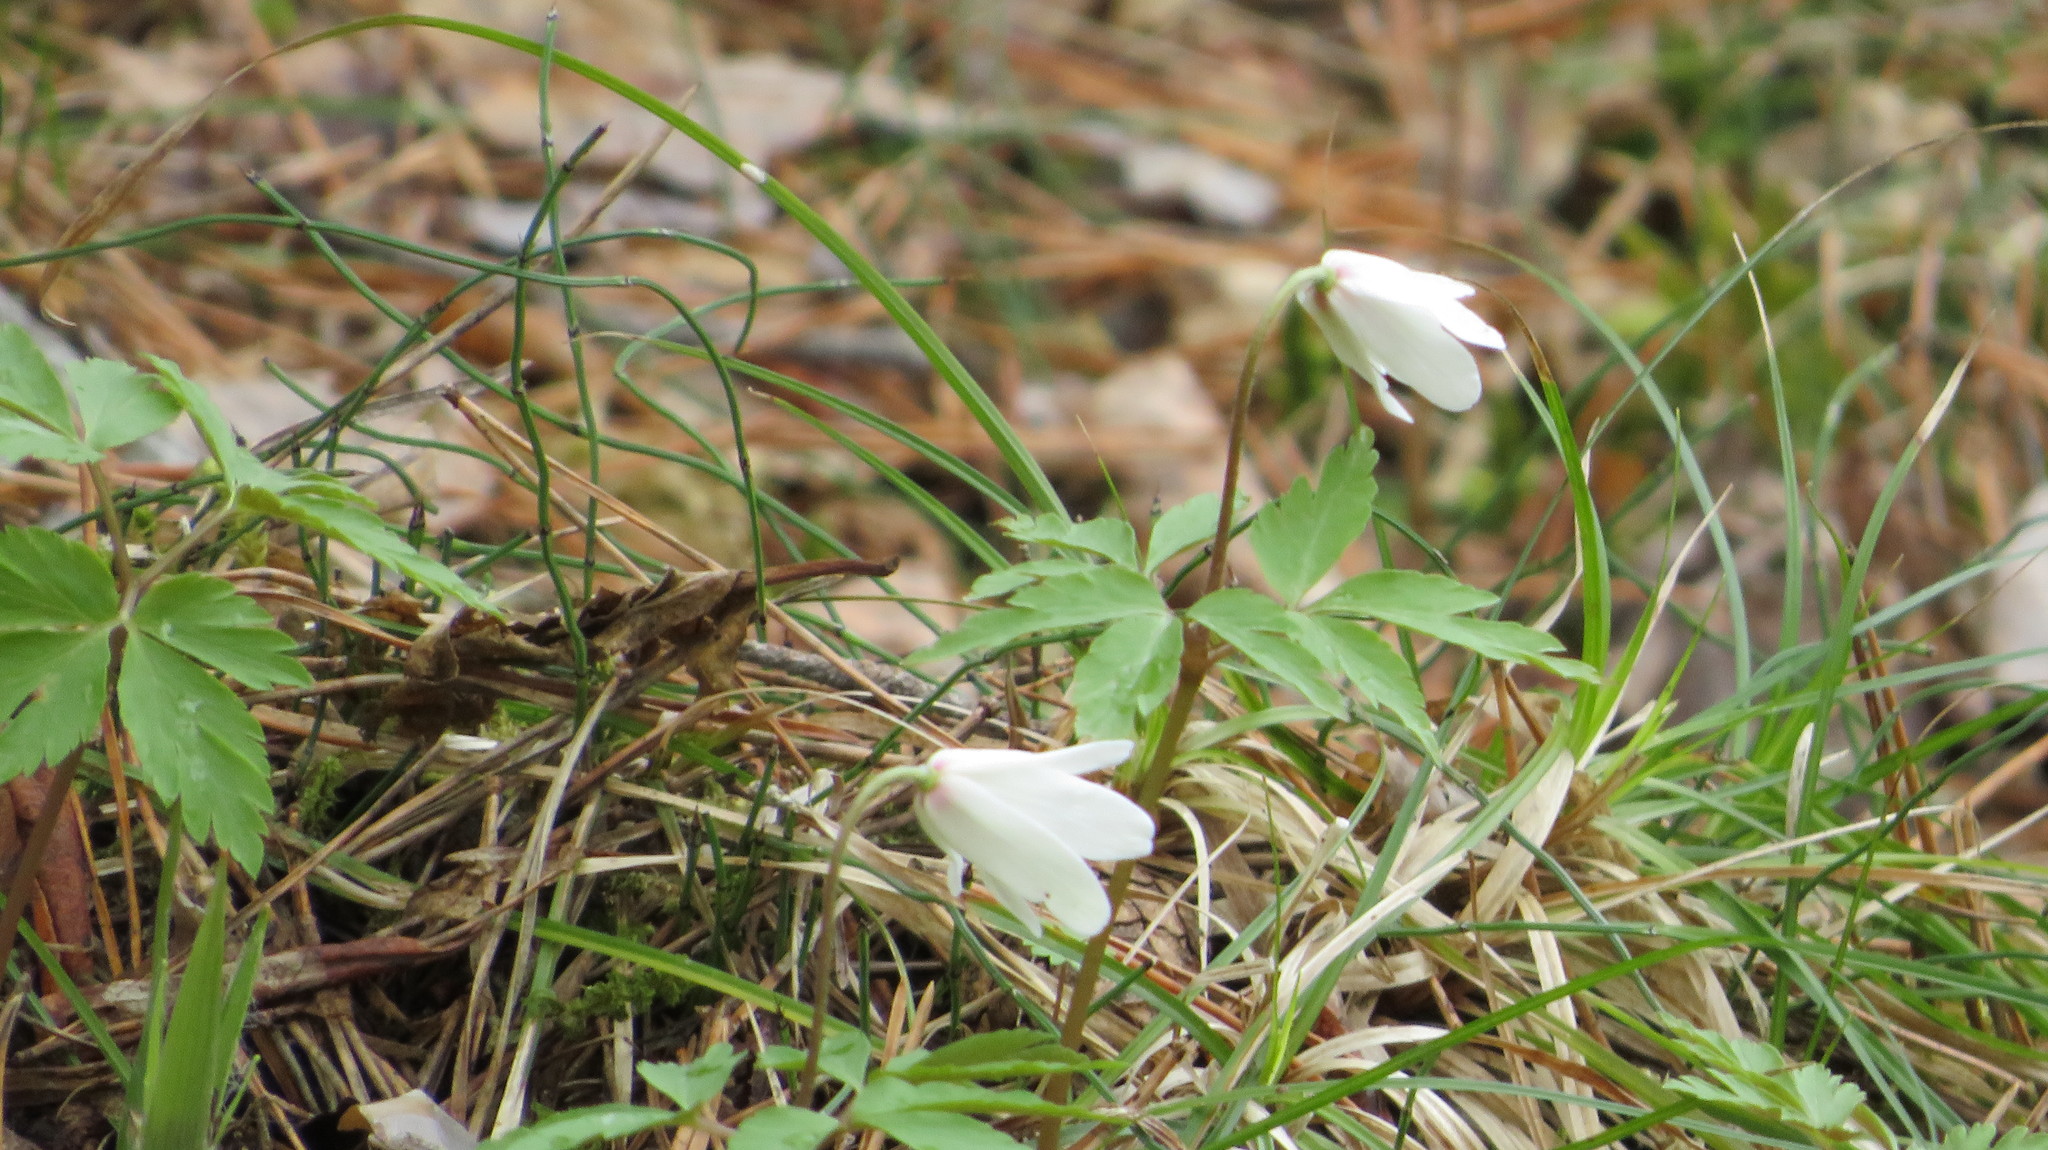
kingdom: Plantae
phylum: Tracheophyta
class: Magnoliopsida
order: Ranunculales
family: Ranunculaceae
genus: Anemone
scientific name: Anemone altaica
